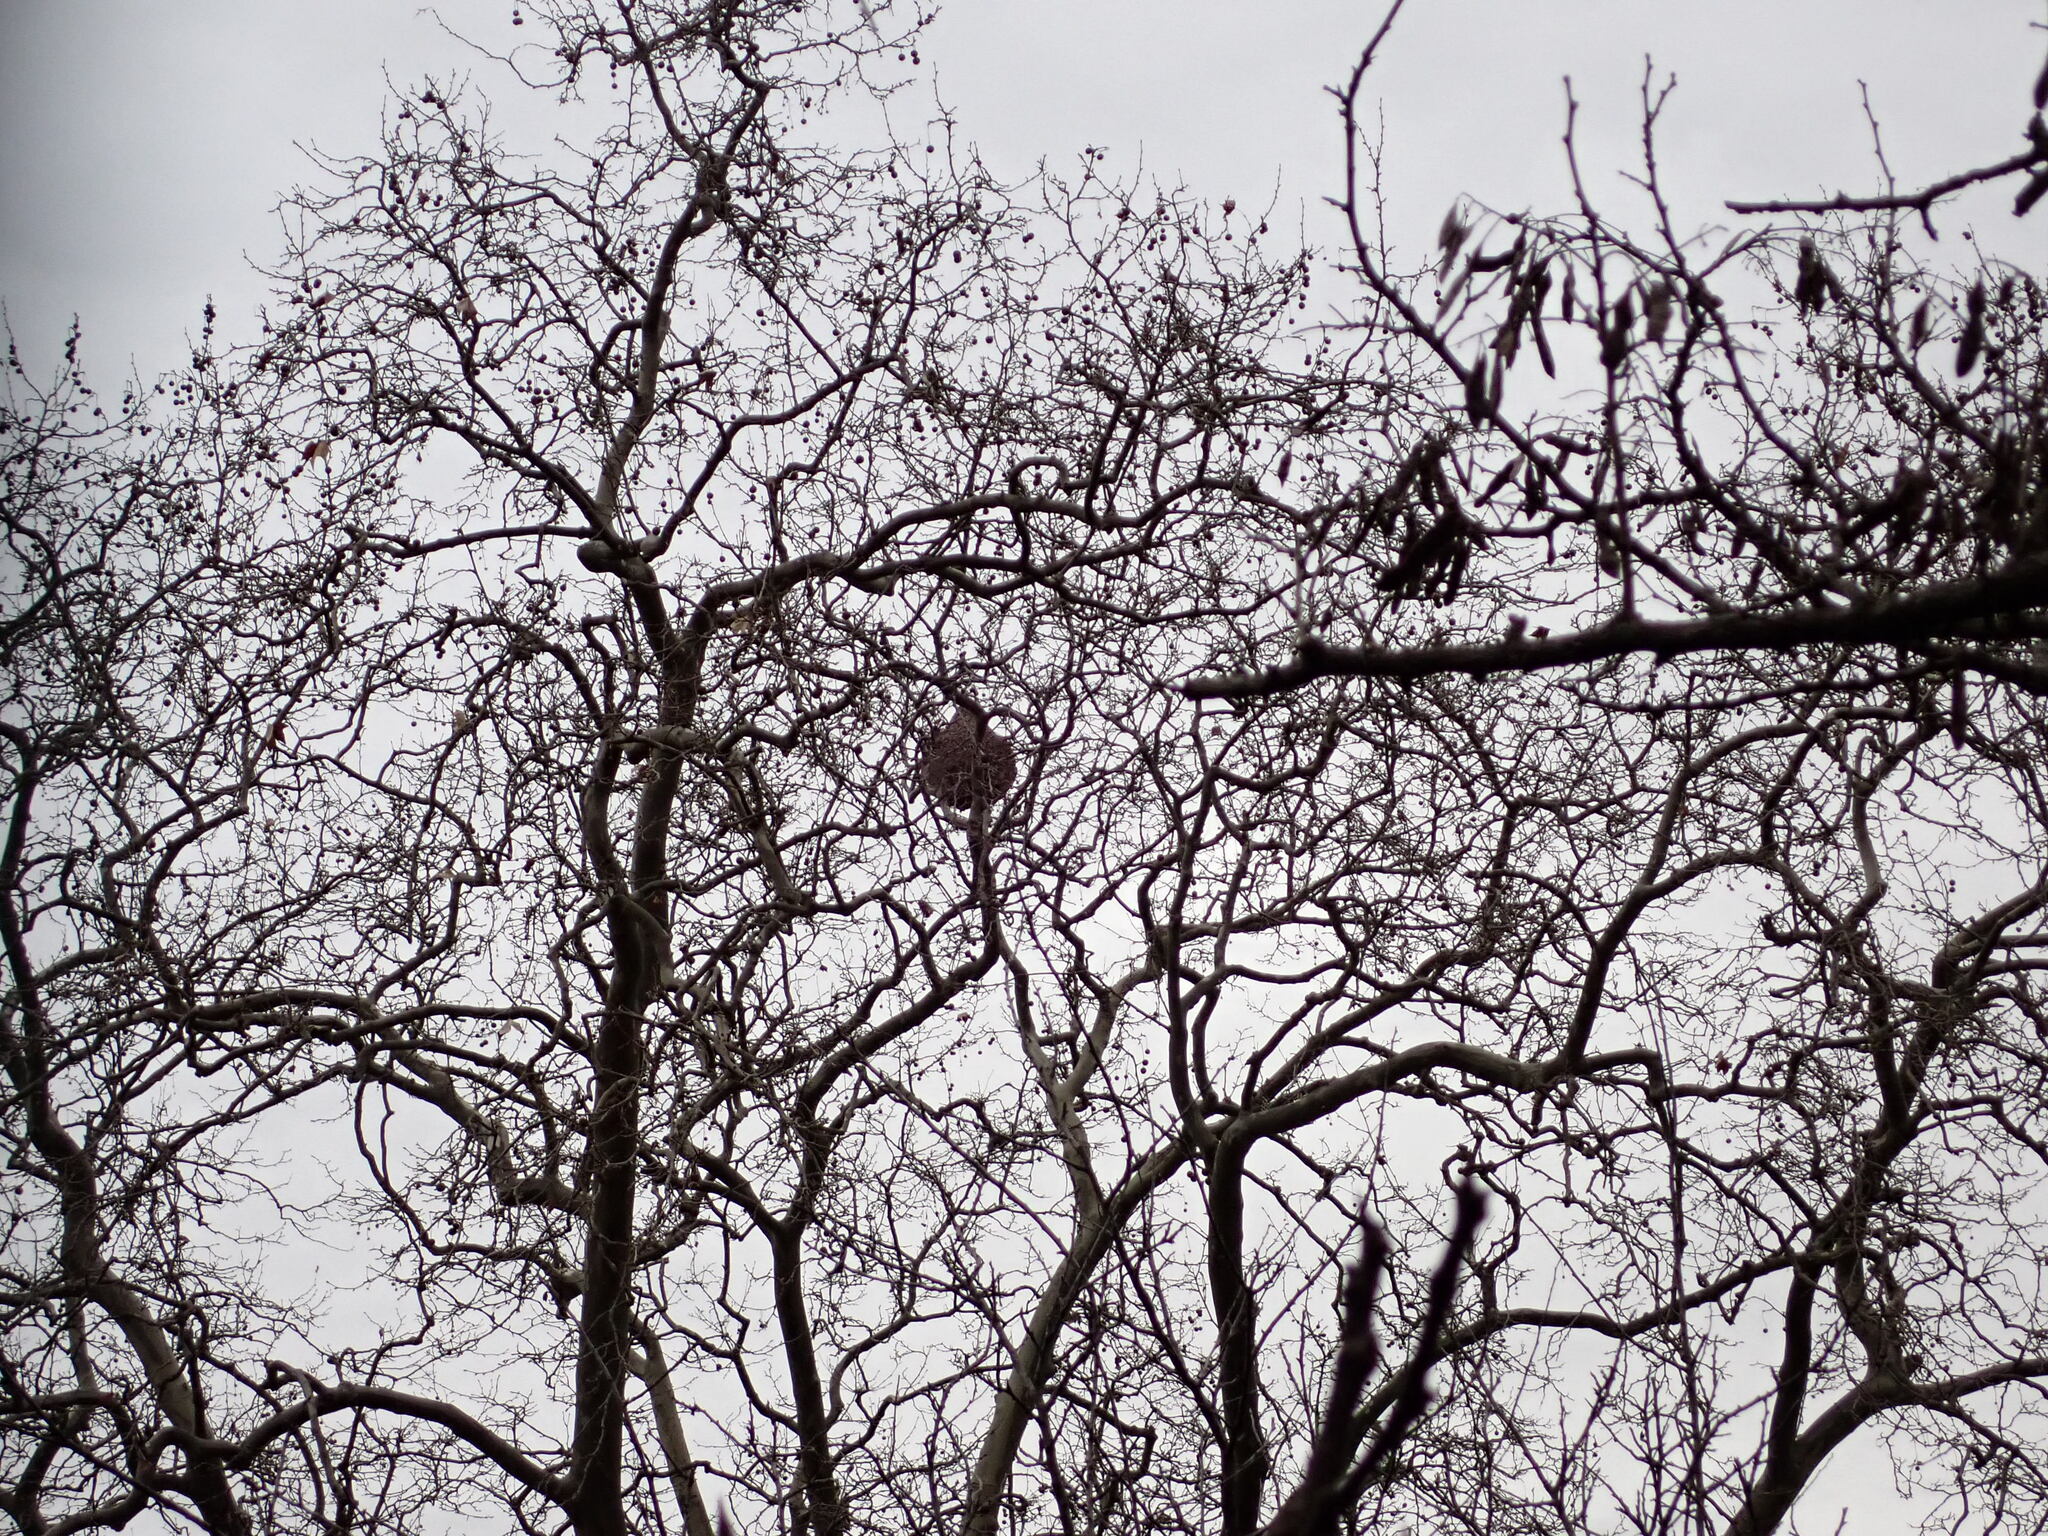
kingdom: Animalia
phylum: Arthropoda
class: Insecta
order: Hymenoptera
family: Vespidae
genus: Vespa
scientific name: Vespa velutina
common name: Asian hornet
